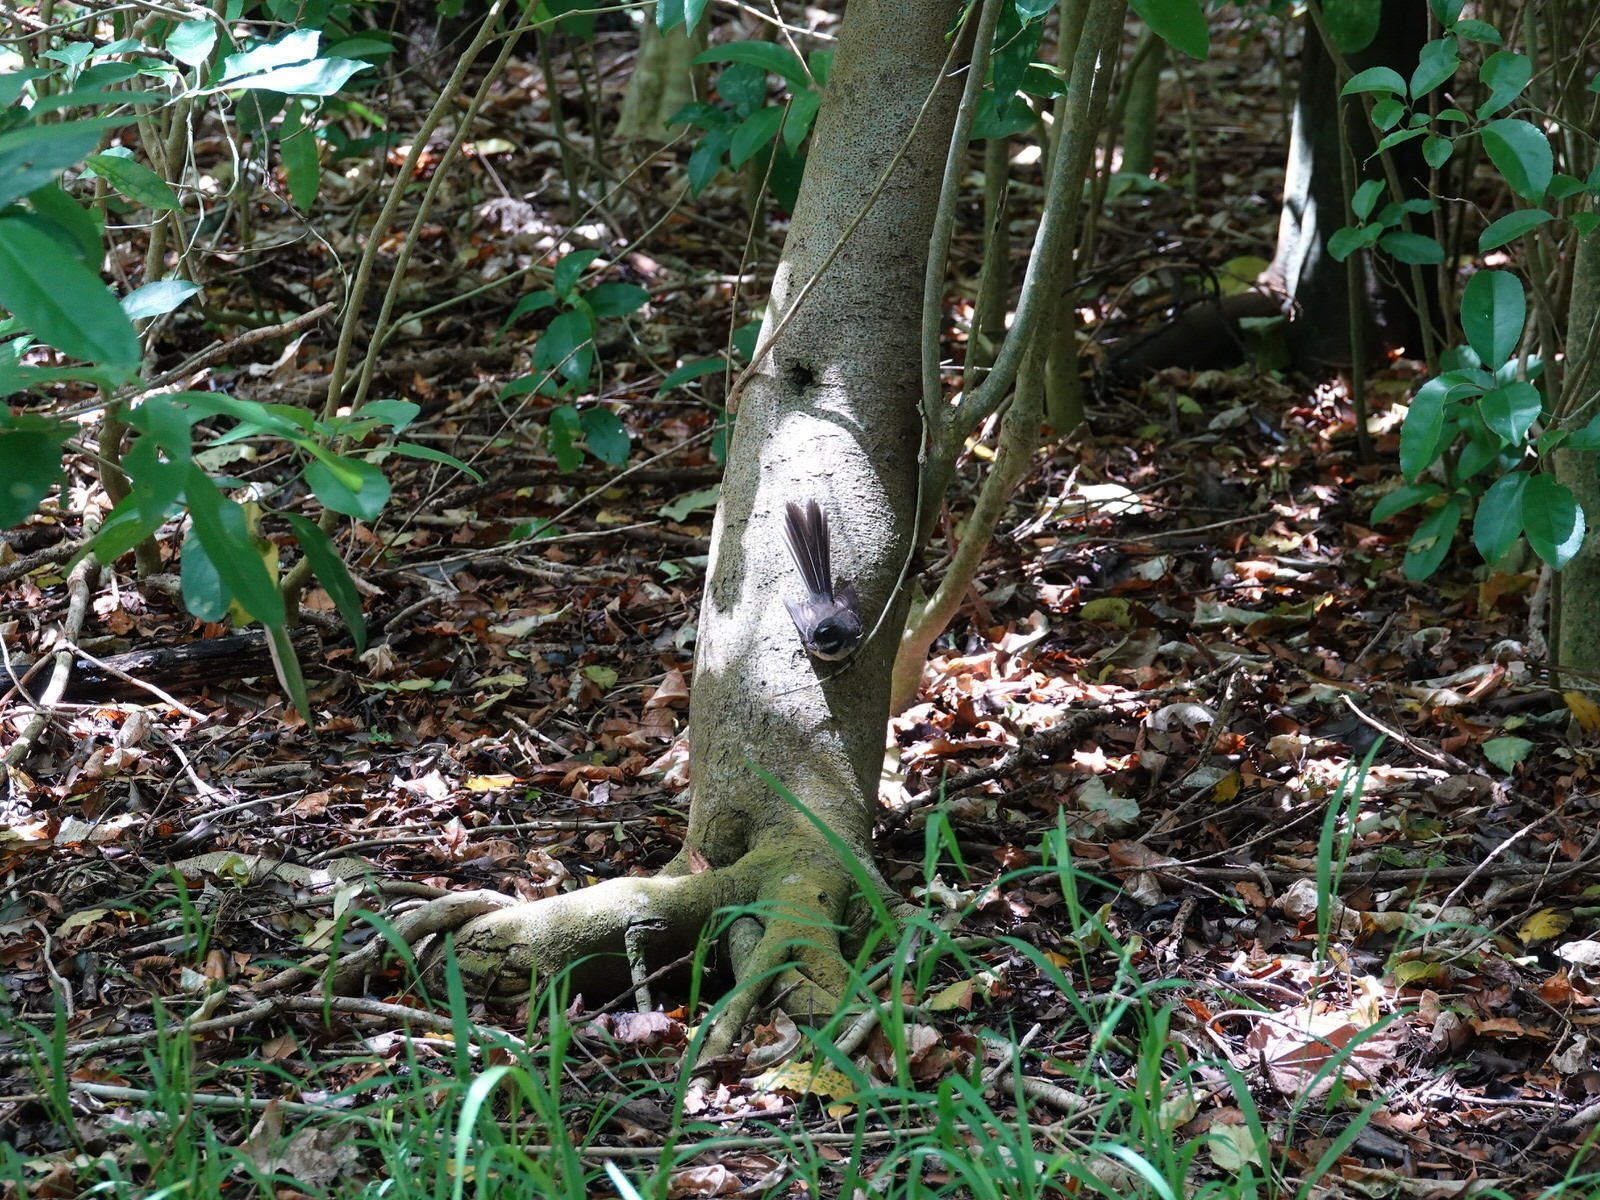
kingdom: Animalia
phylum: Chordata
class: Aves
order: Passeriformes
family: Rhipiduridae
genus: Rhipidura
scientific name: Rhipidura fuliginosa
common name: New zealand fantail
